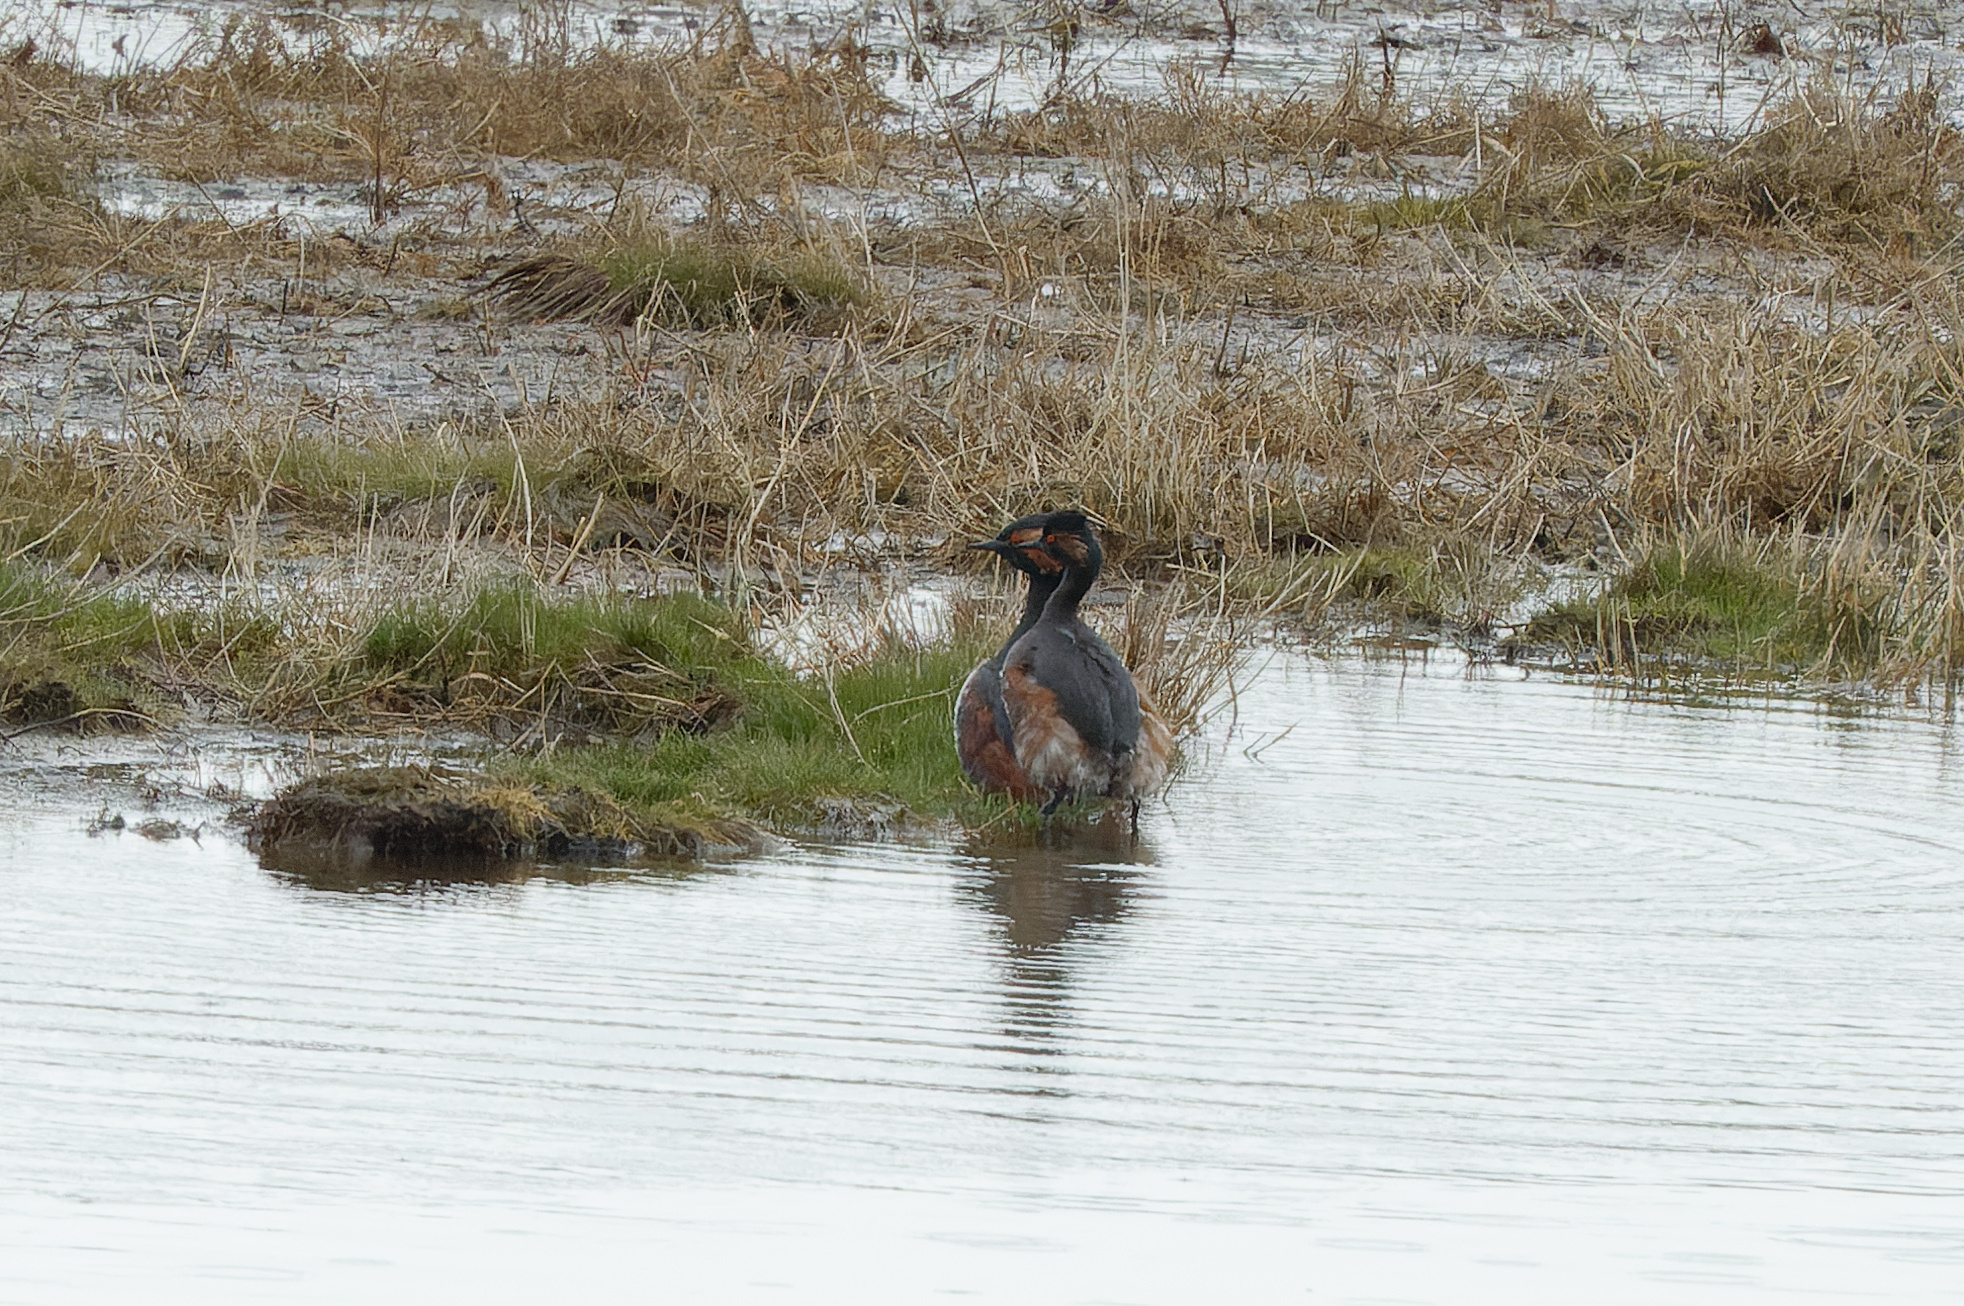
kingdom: Animalia
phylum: Chordata
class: Aves
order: Podicipediformes
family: Podicipedidae
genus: Podiceps
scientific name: Podiceps nigricollis
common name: Black-necked grebe
